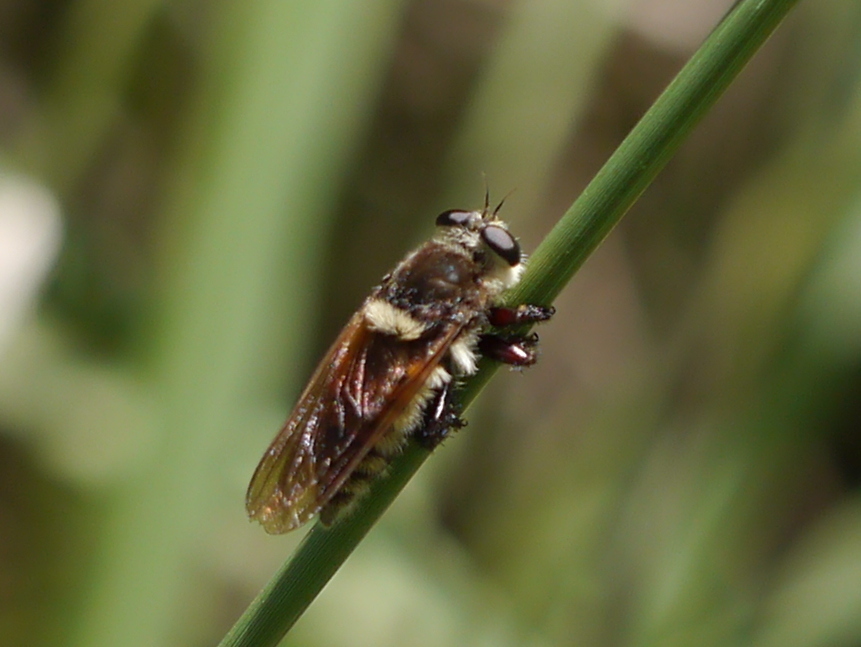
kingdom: Animalia
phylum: Arthropoda
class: Insecta
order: Diptera
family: Asilidae
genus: Mallophora
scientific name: Mallophora fautrix
